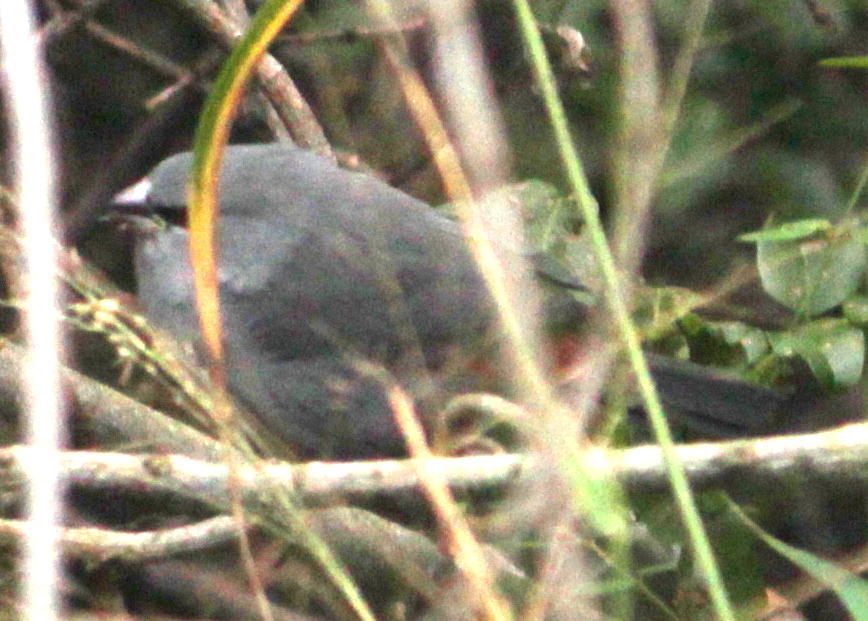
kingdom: Animalia
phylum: Chordata
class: Aves
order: Passeriformes
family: Estrildidae
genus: Estrilda
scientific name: Estrilda perreini
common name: Grey waxbill
